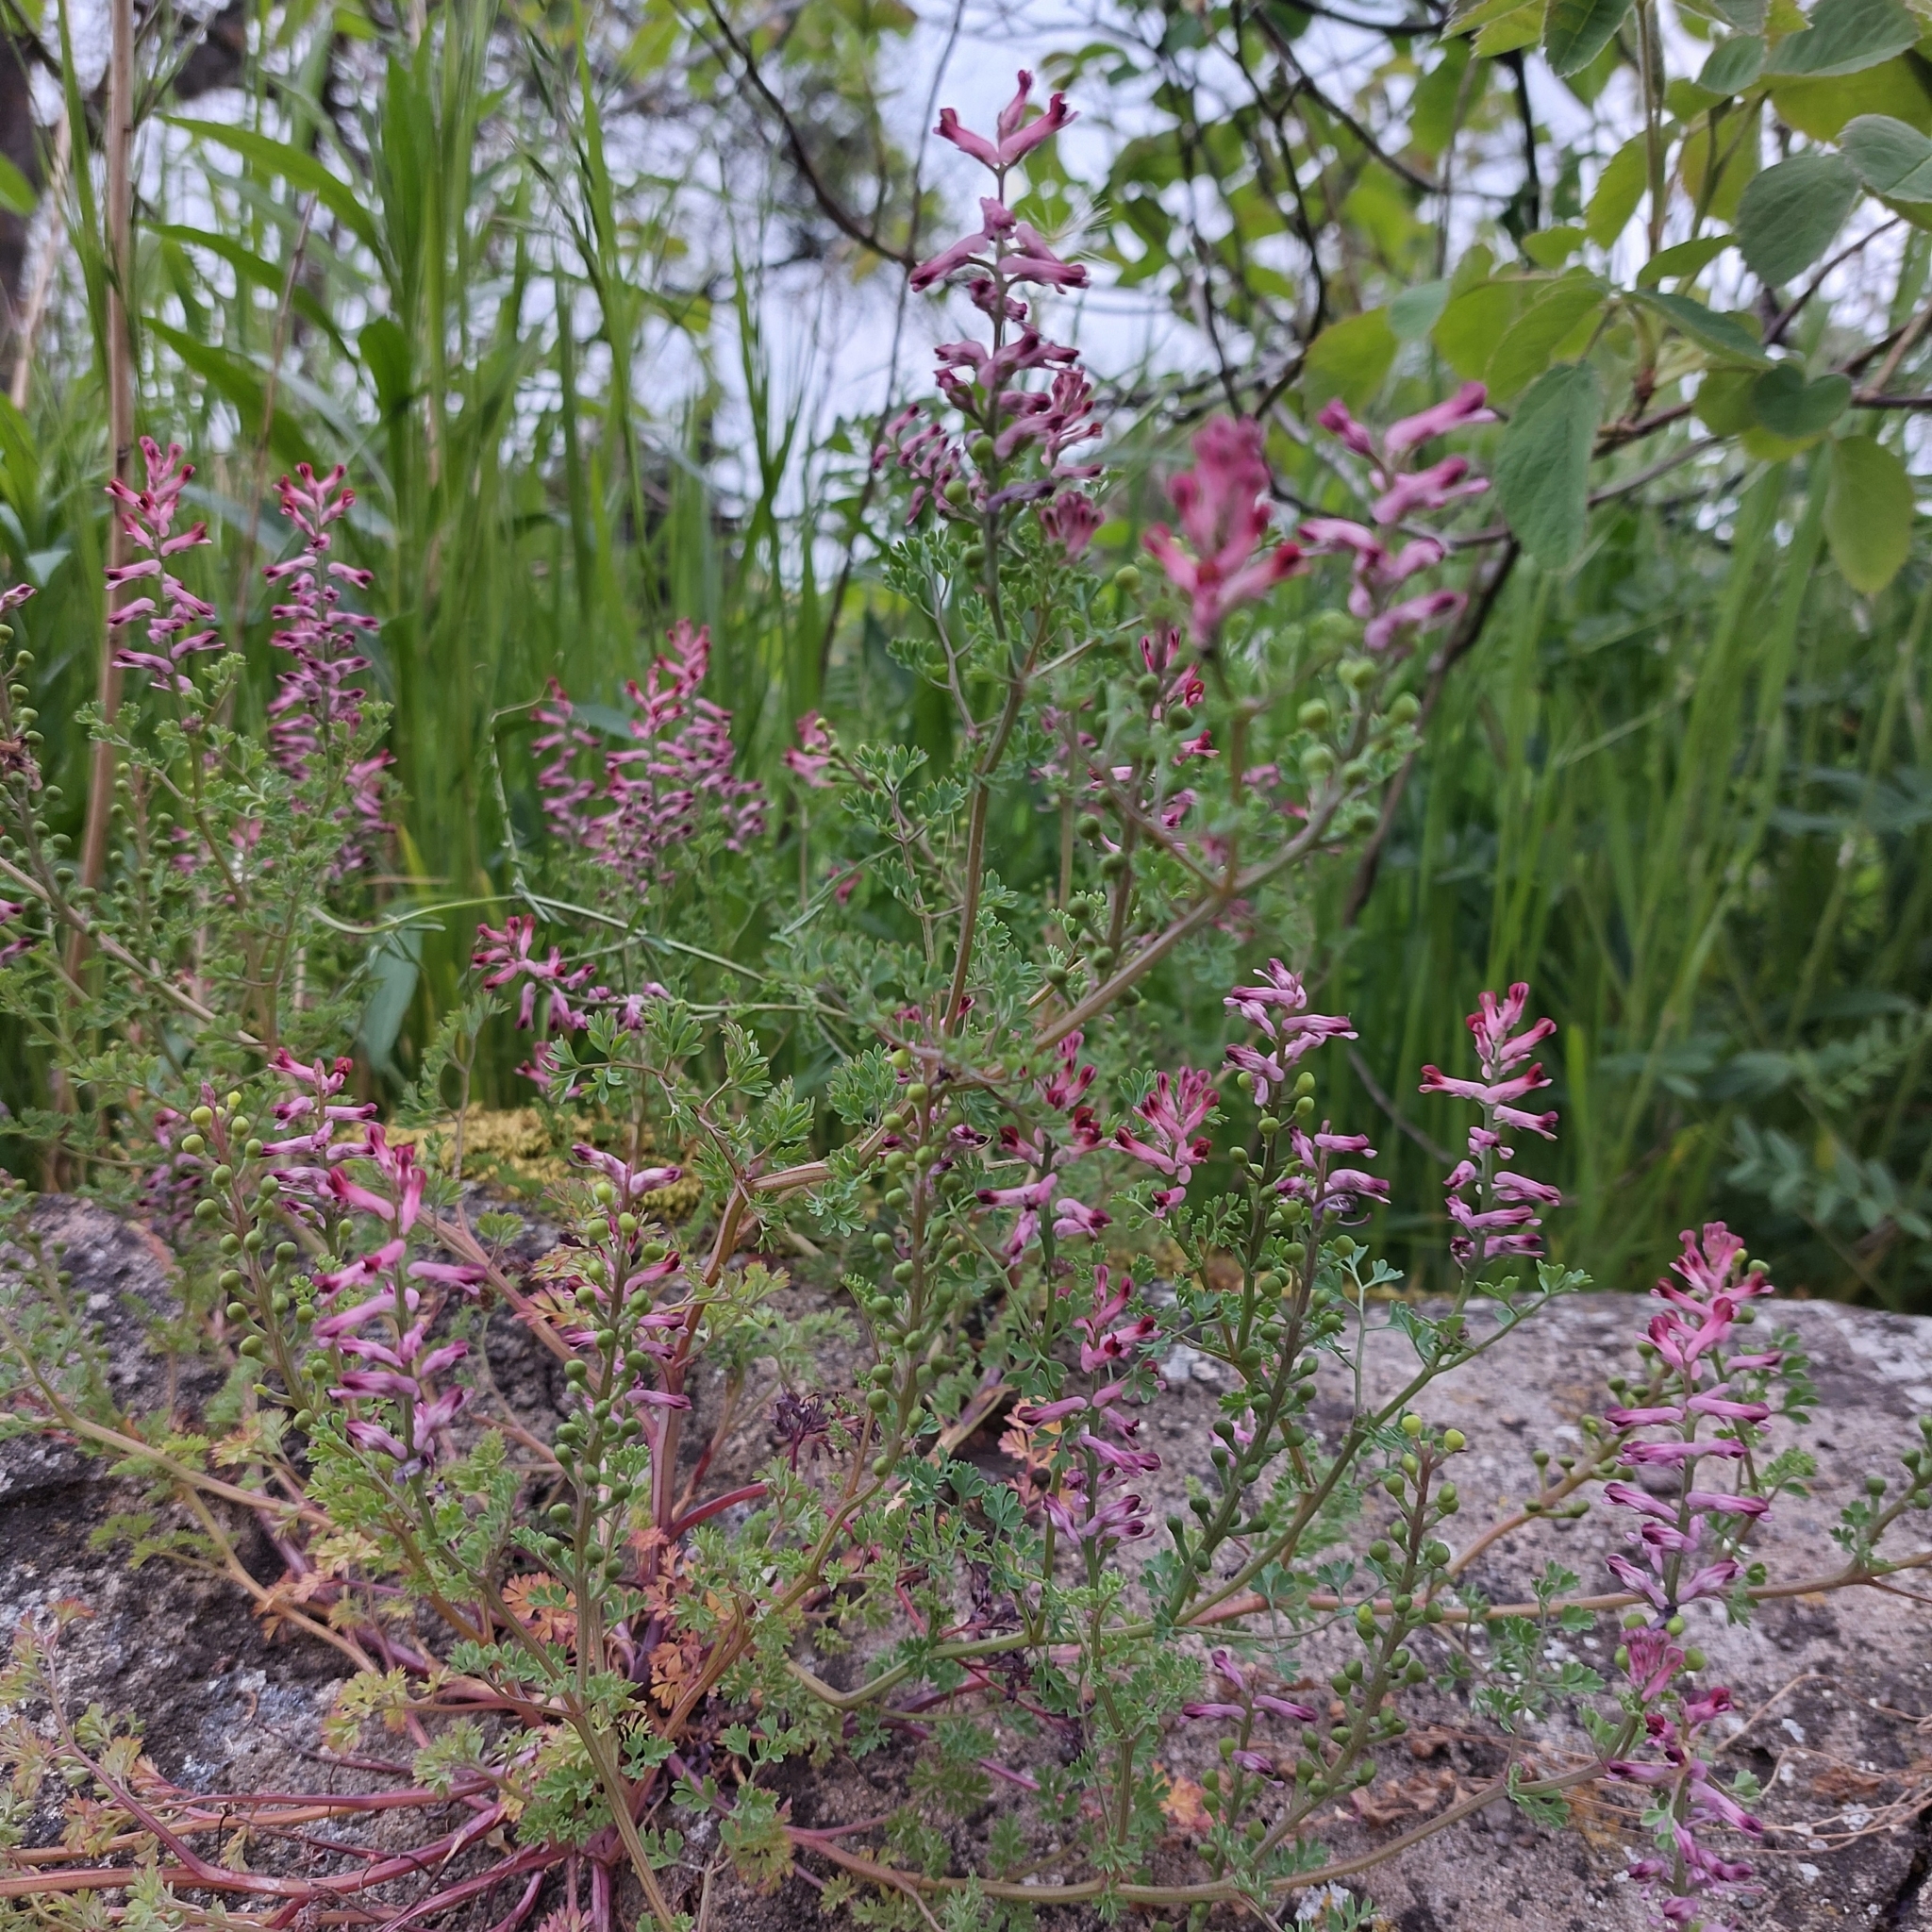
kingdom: Plantae
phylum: Tracheophyta
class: Magnoliopsida
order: Ranunculales
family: Papaveraceae
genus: Fumaria
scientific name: Fumaria officinalis
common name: Common fumitory
